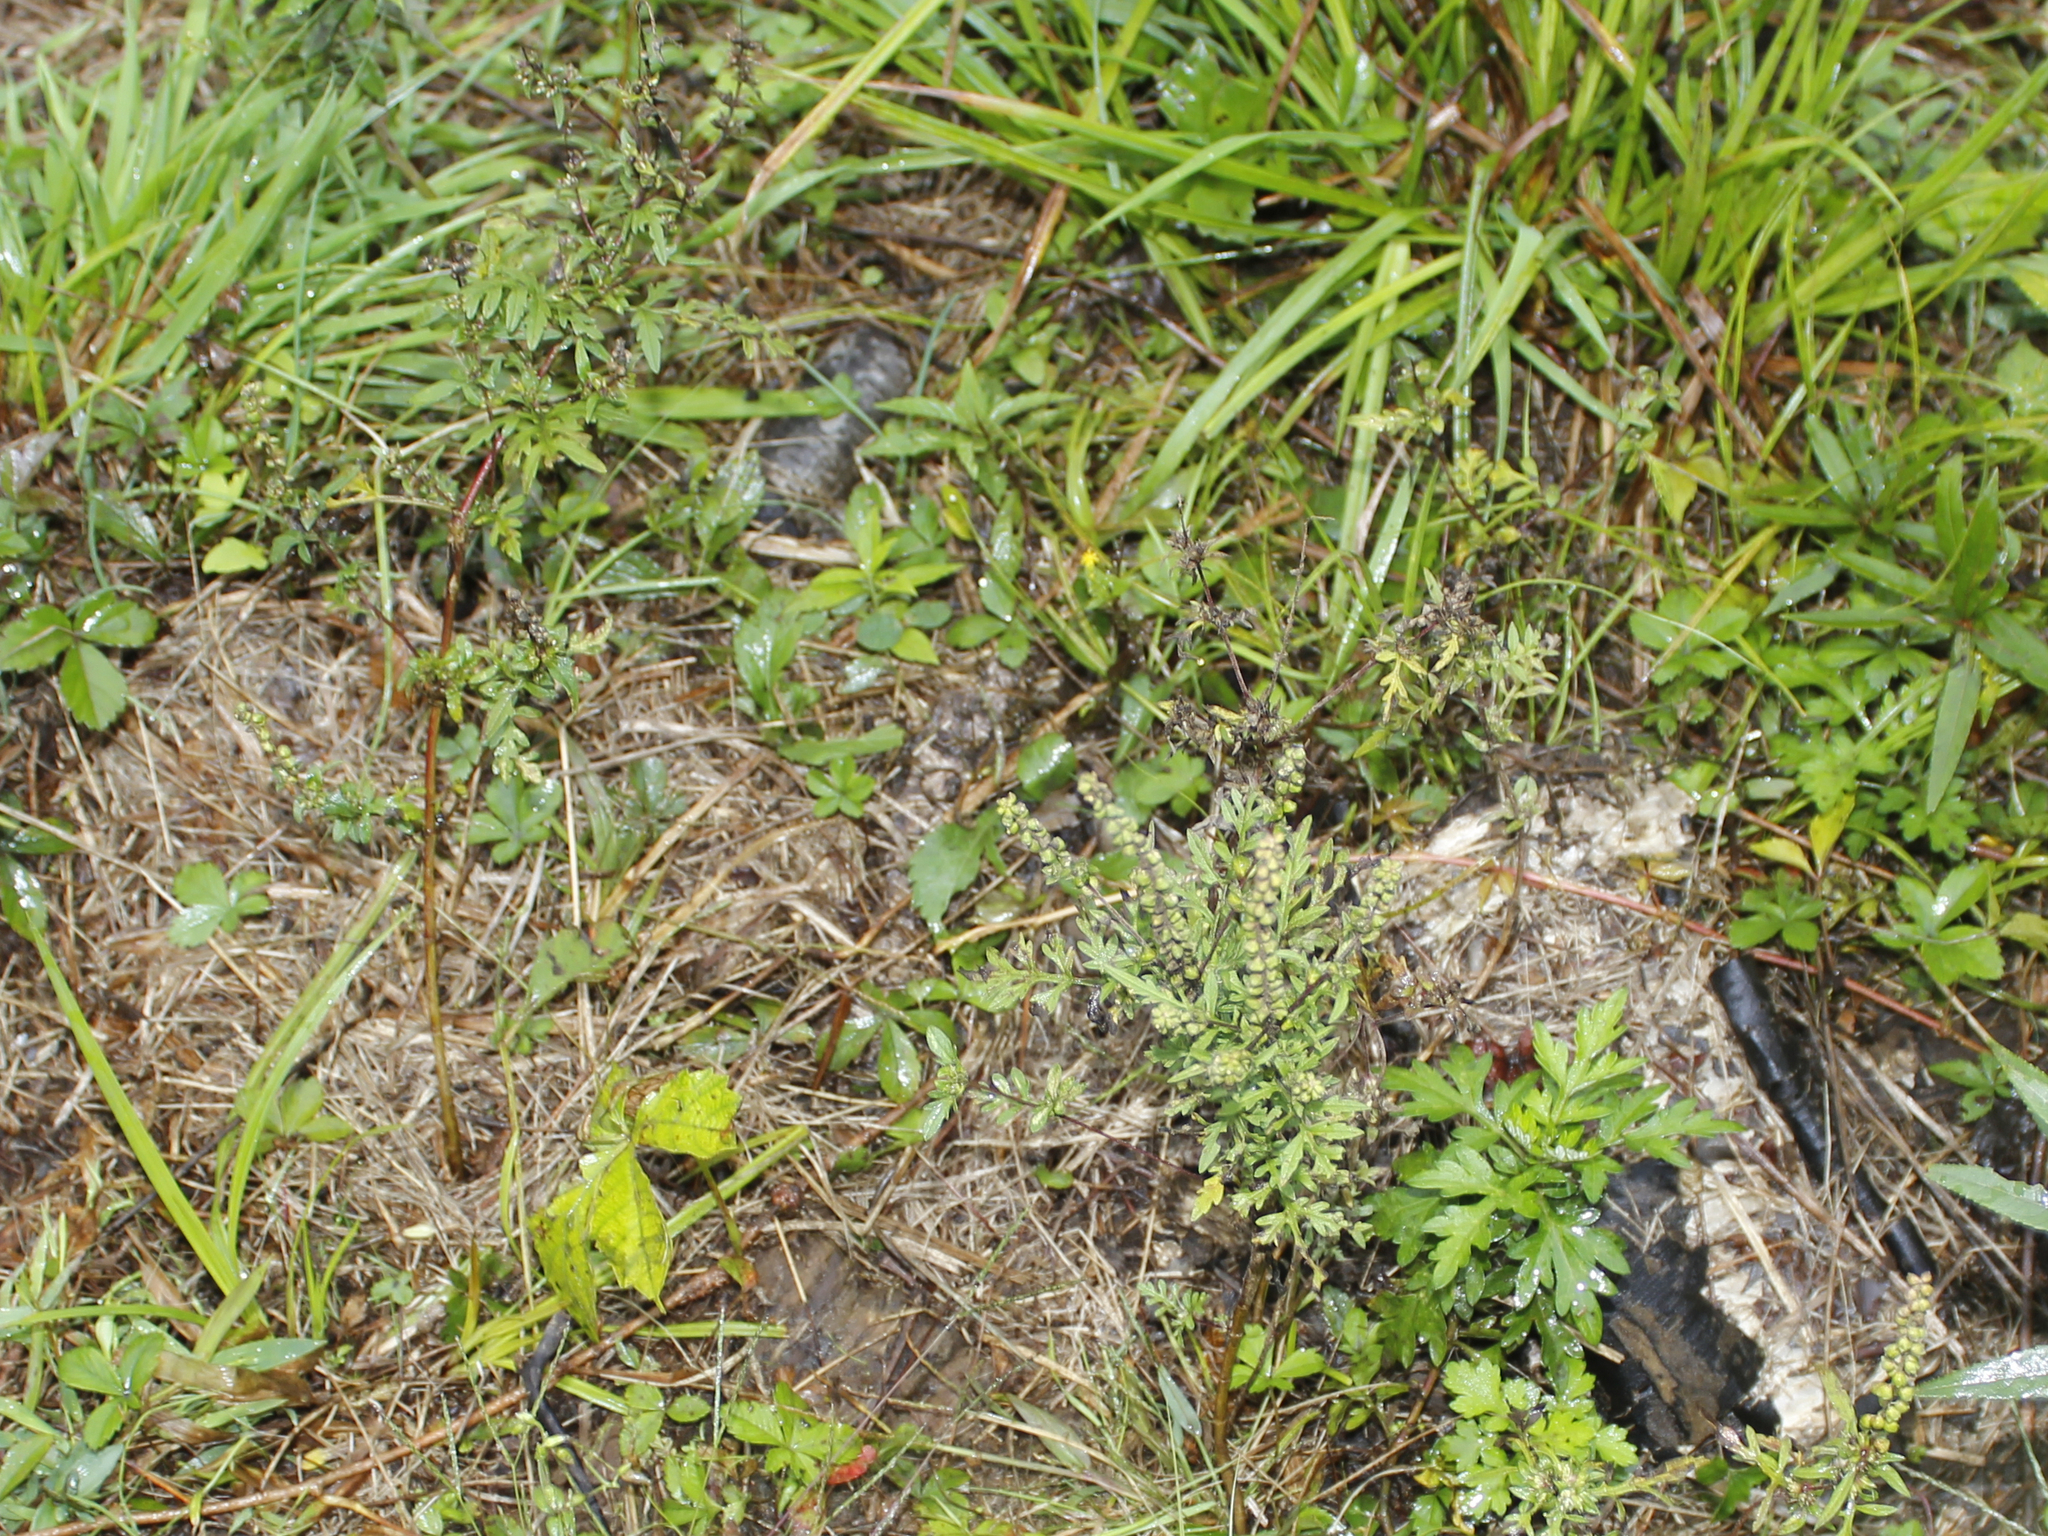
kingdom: Plantae
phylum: Tracheophyta
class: Magnoliopsida
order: Asterales
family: Asteraceae
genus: Artemisia
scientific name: Artemisia vulgaris
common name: Mugwort
